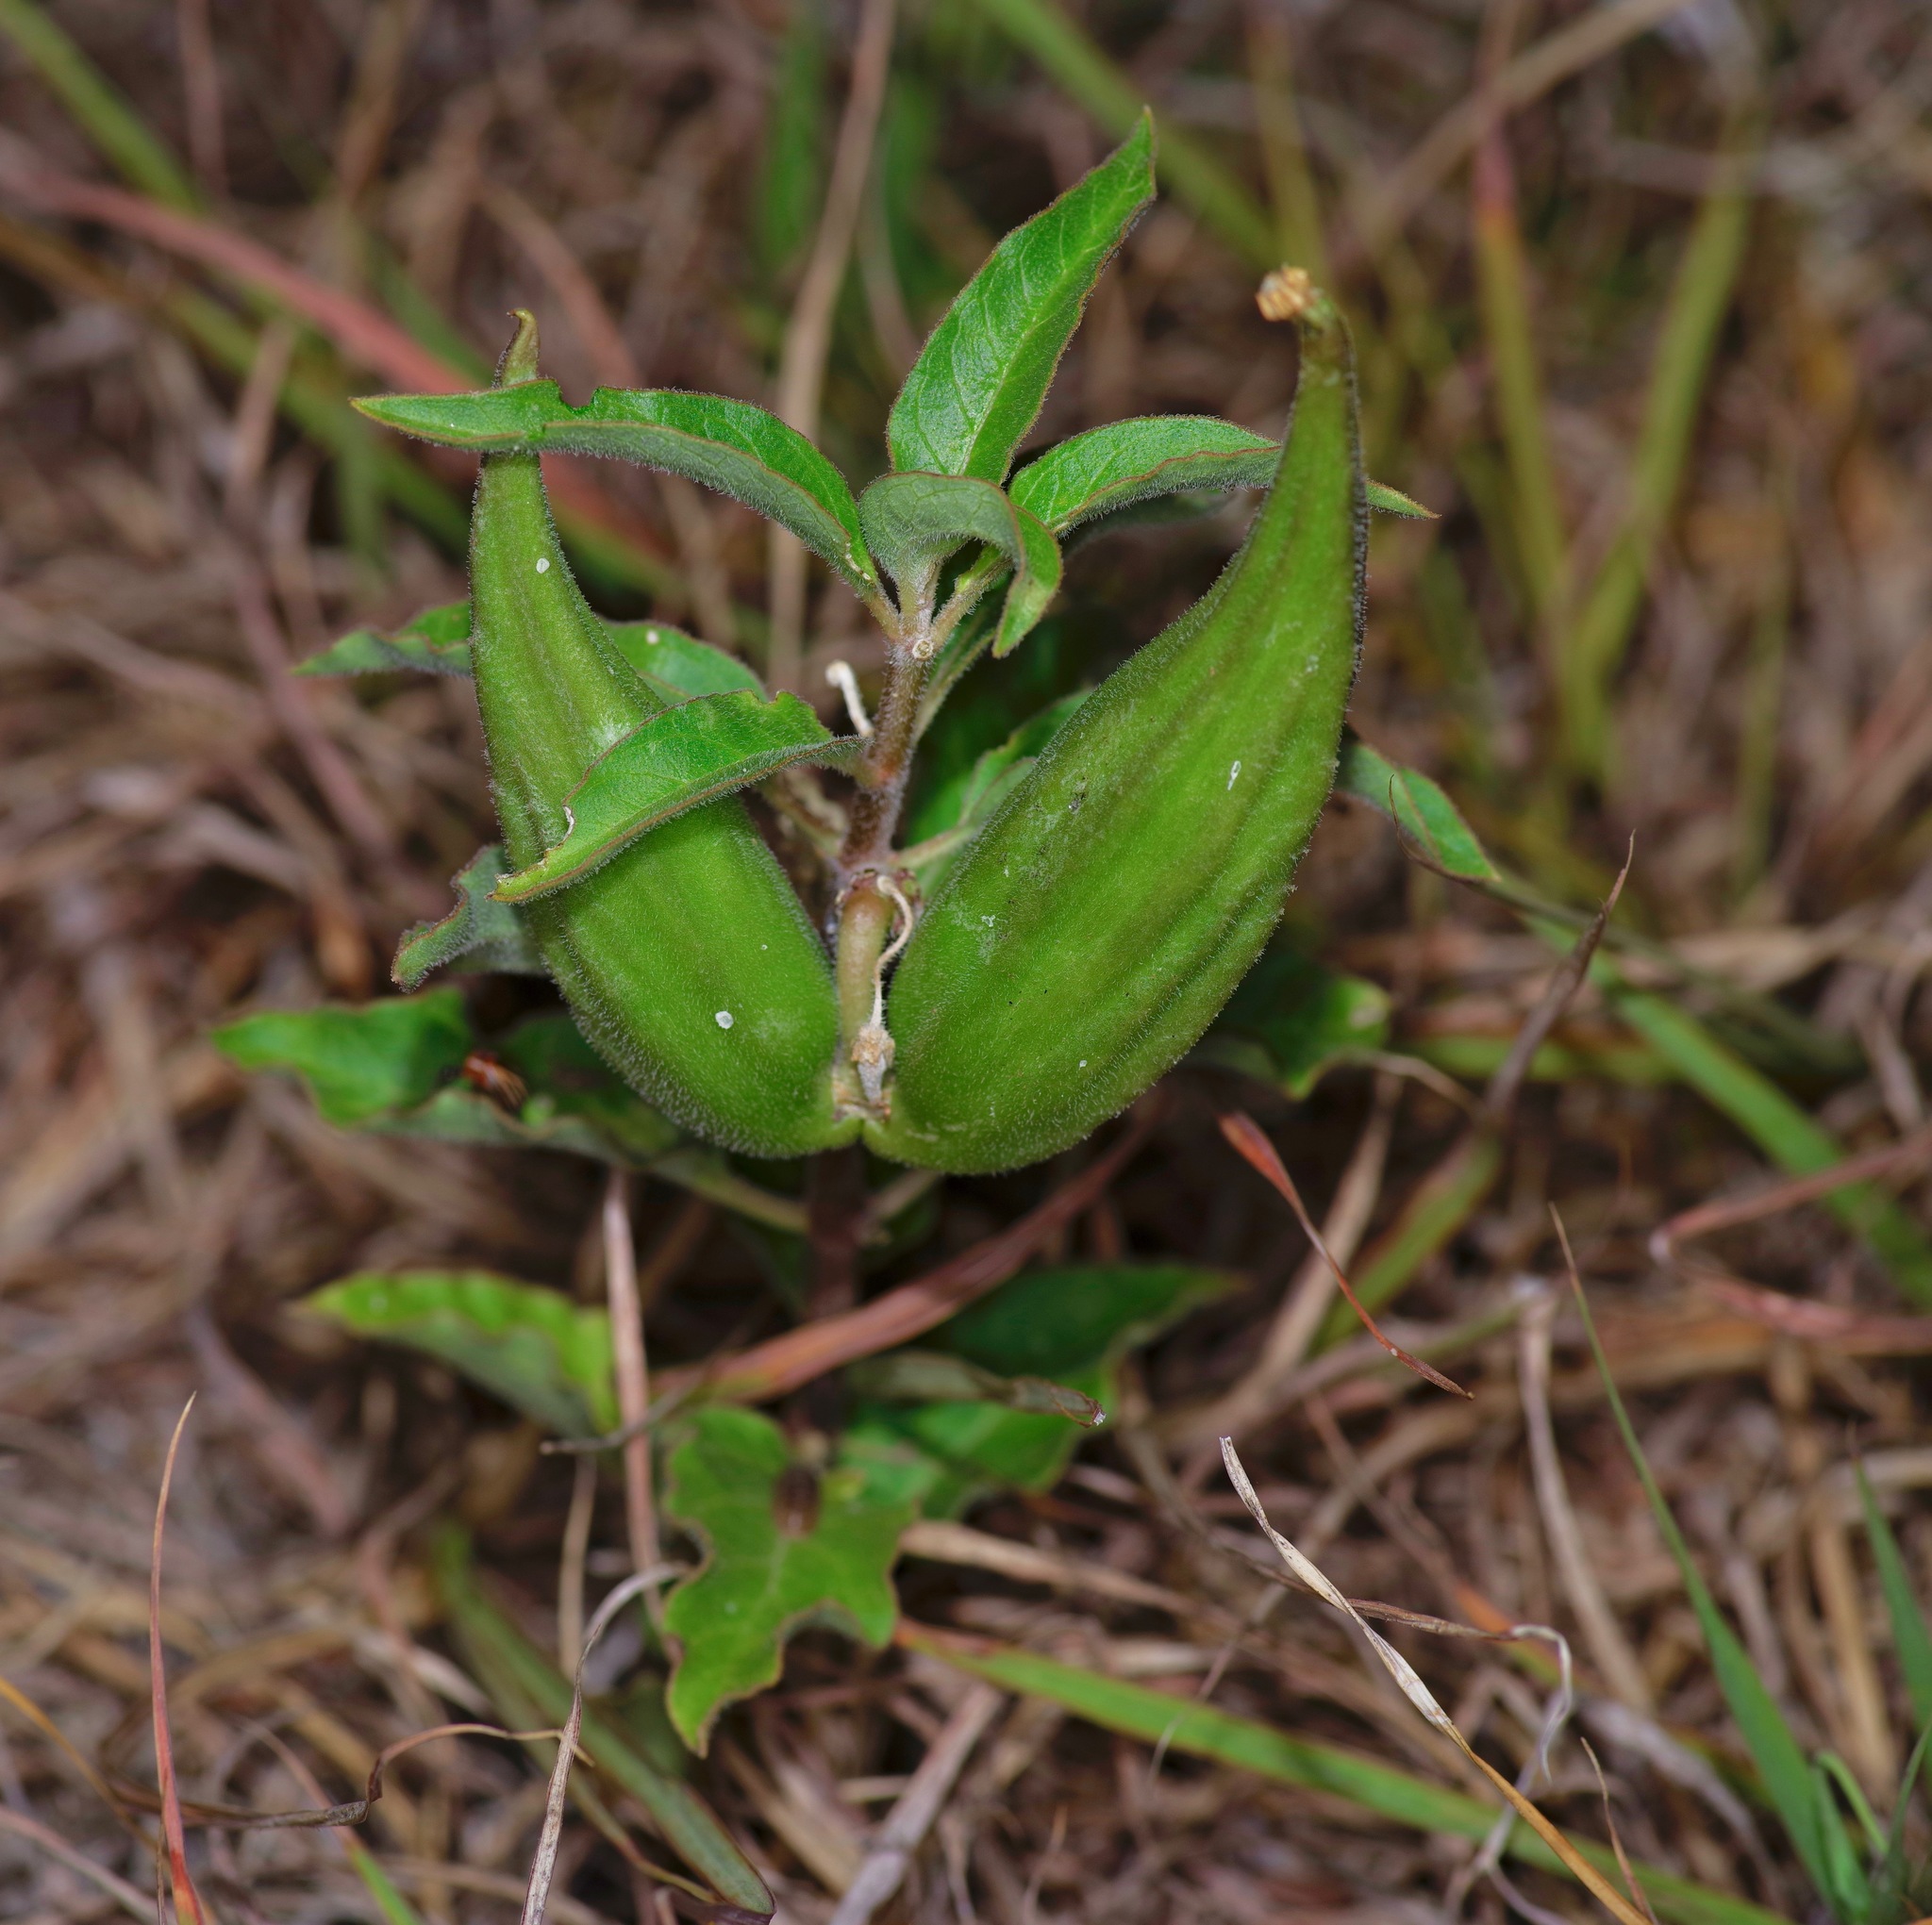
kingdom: Plantae
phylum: Tracheophyta
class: Magnoliopsida
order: Gentianales
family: Apocynaceae
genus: Asclepias
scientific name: Asclepias oenotheroides
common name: Zizotes milkweed
